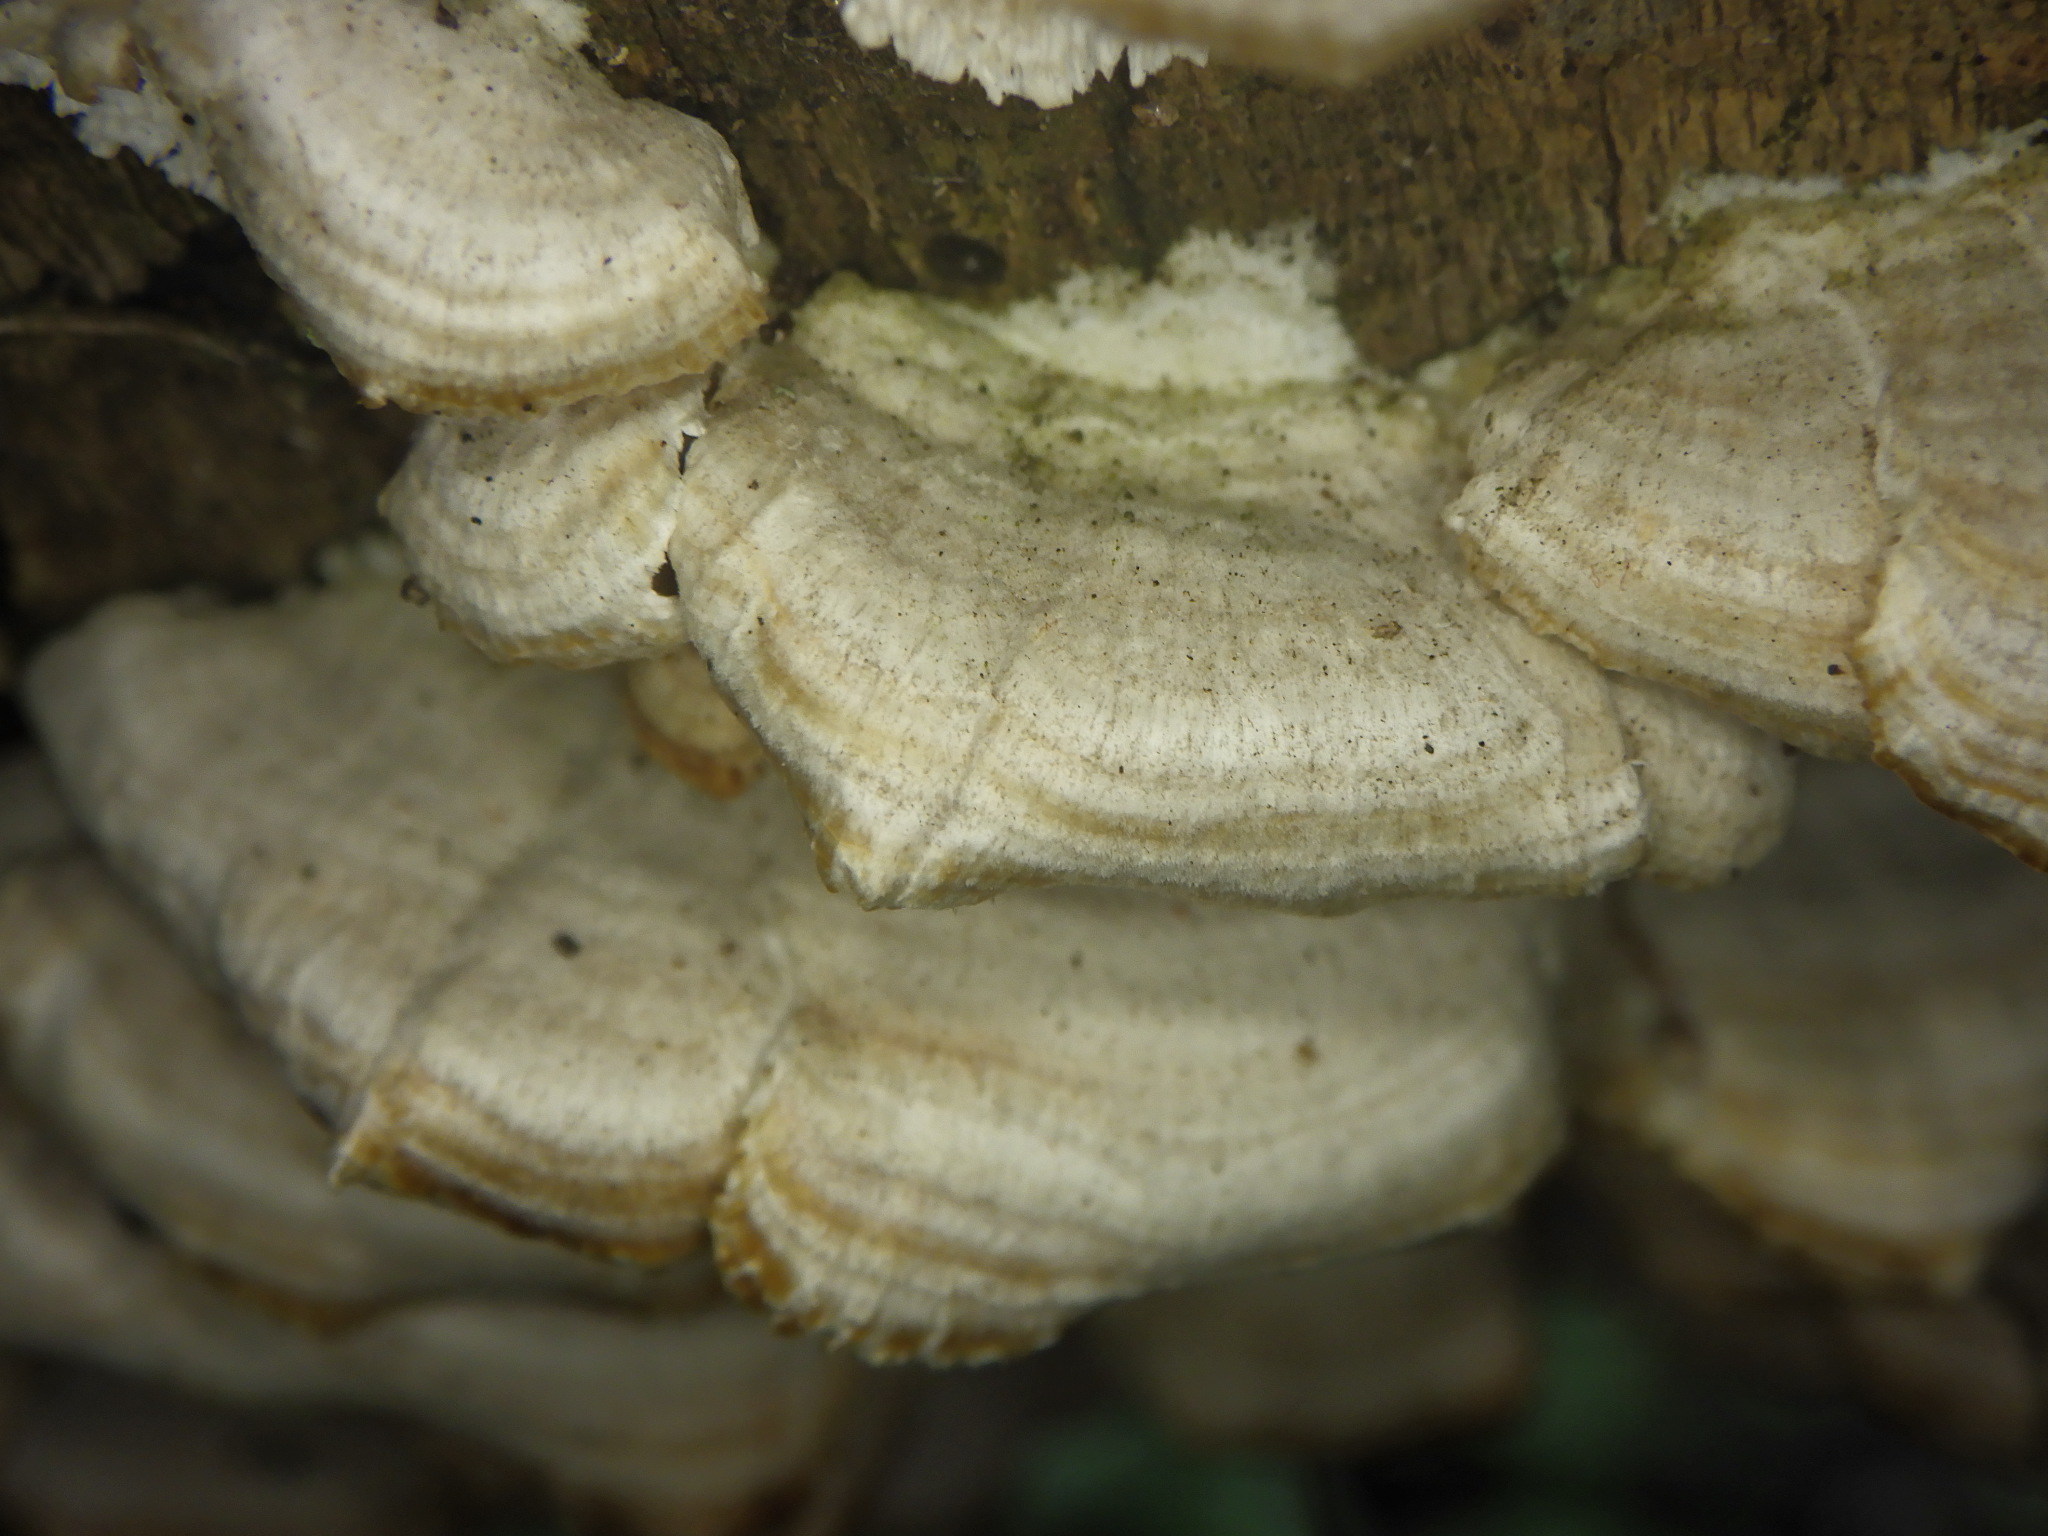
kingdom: Fungi
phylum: Ascomycota
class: Eurotiomycetes
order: Mycocaliciales
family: Mycocaliciaceae
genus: Phaeocalicium
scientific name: Phaeocalicium polyporaeum
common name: Fairy pins
